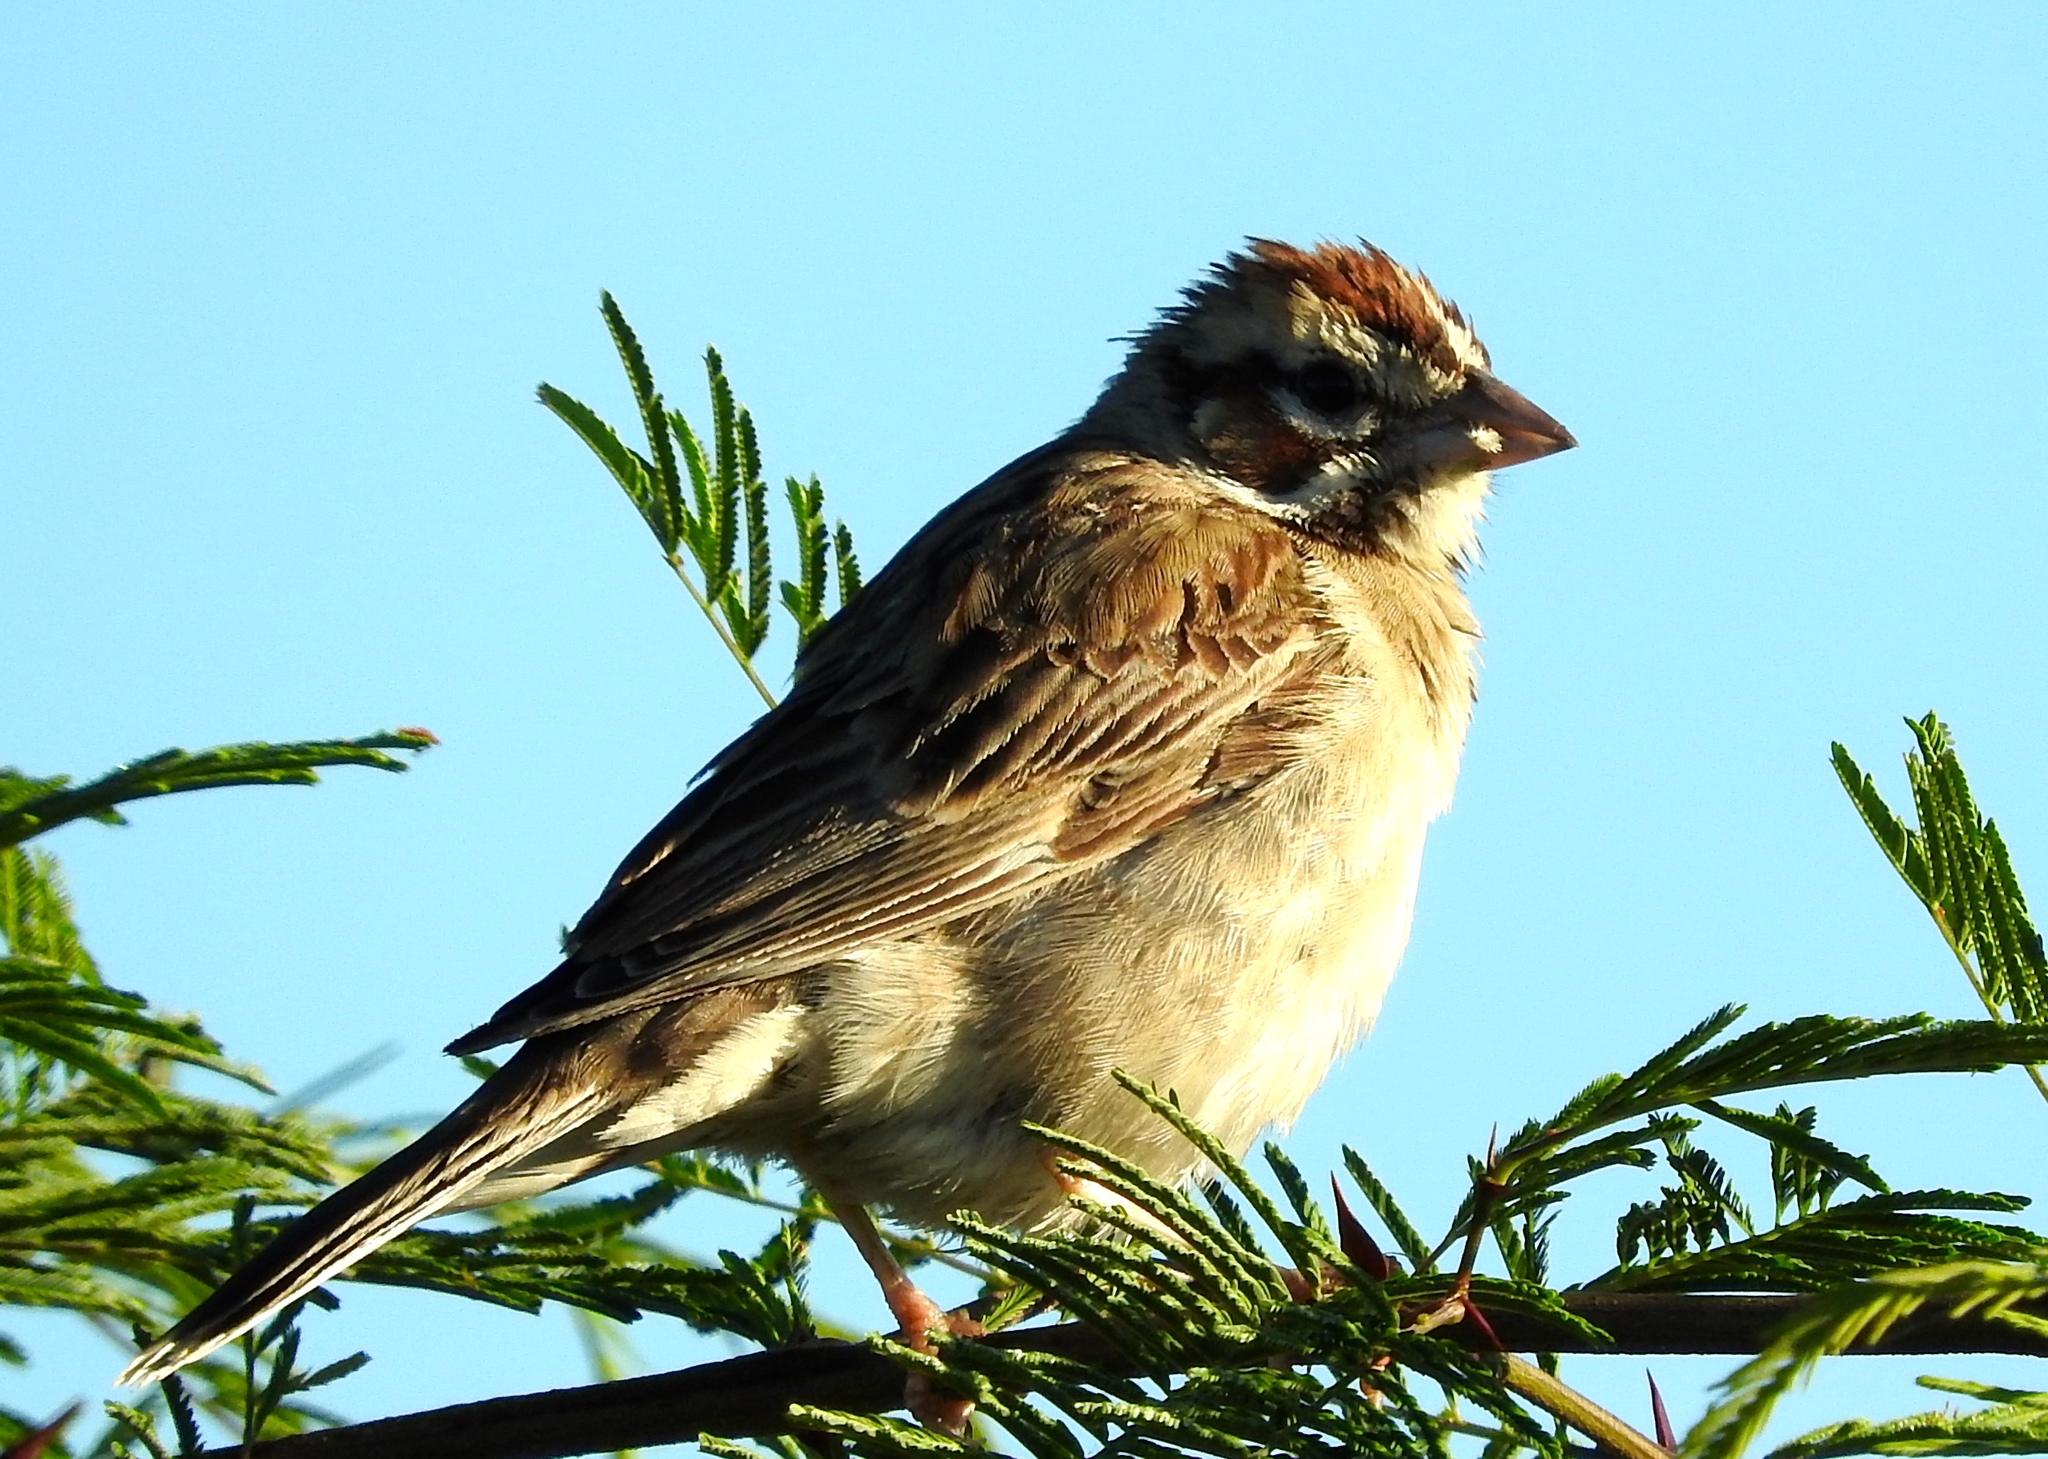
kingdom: Animalia
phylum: Chordata
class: Aves
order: Passeriformes
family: Passerellidae
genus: Chondestes
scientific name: Chondestes grammacus
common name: Lark sparrow
